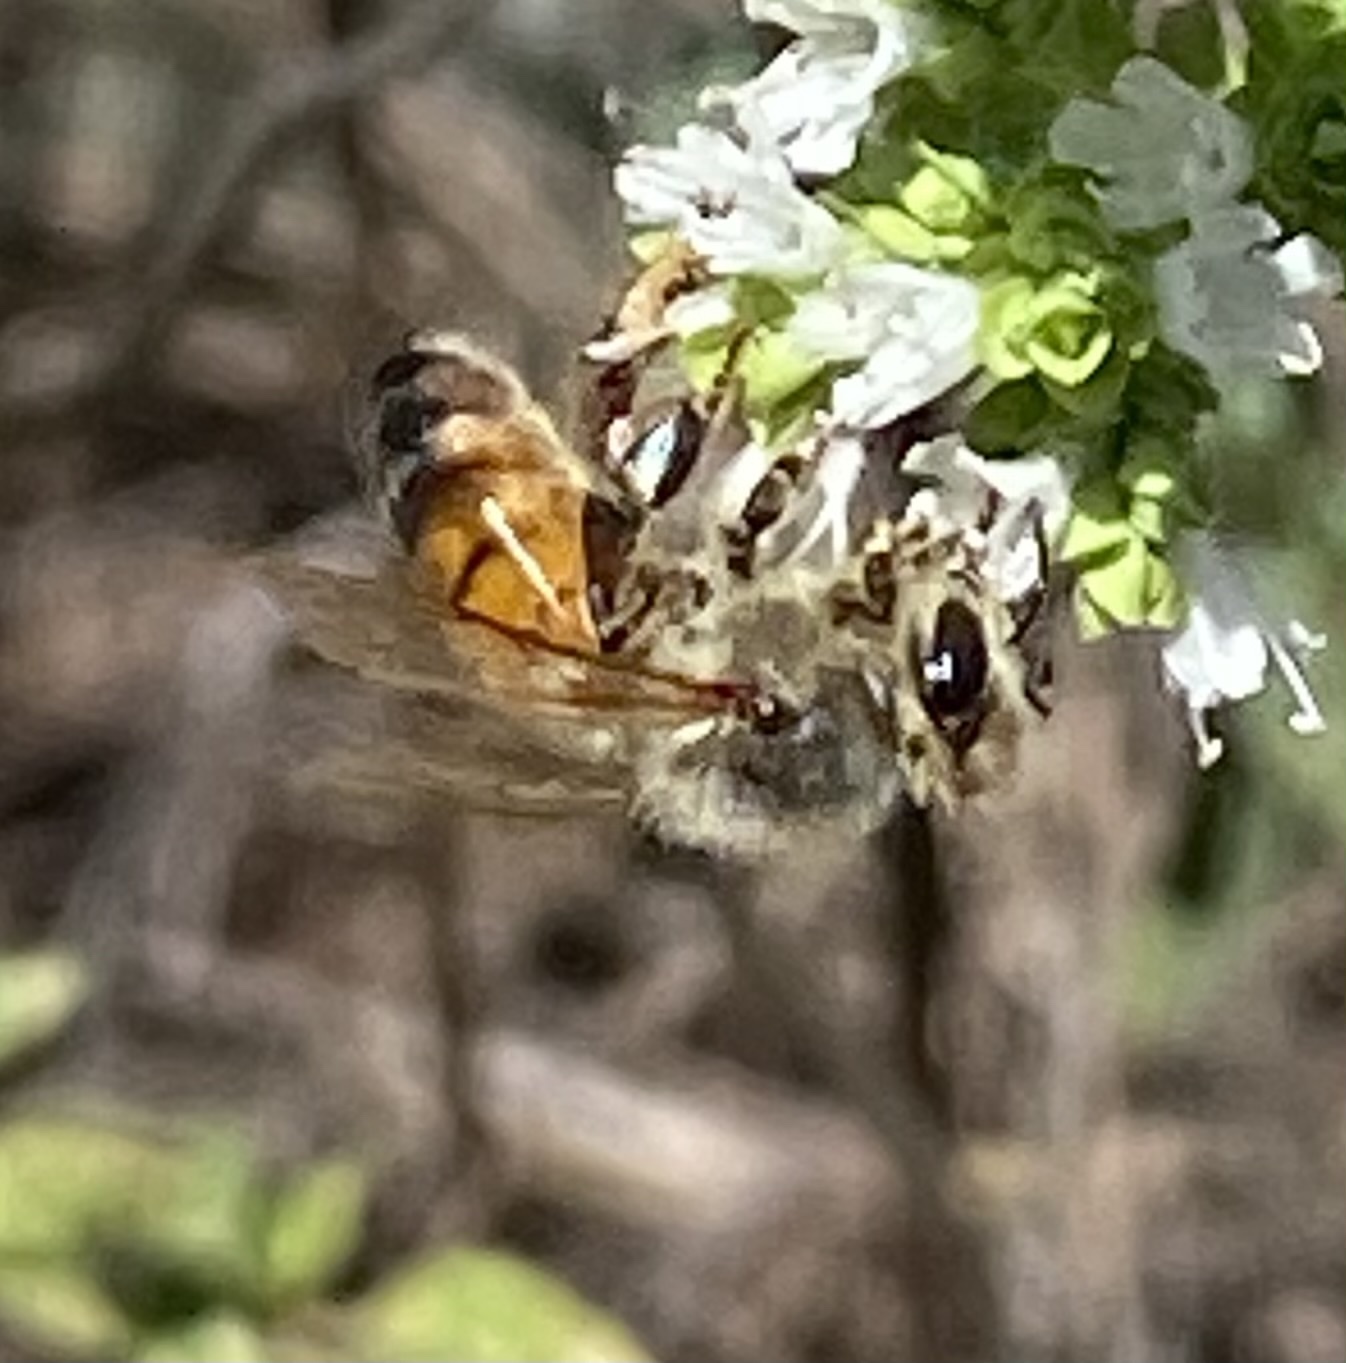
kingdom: Animalia
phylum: Arthropoda
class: Insecta
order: Hymenoptera
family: Apidae
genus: Apis
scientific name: Apis mellifera
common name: Honey bee
